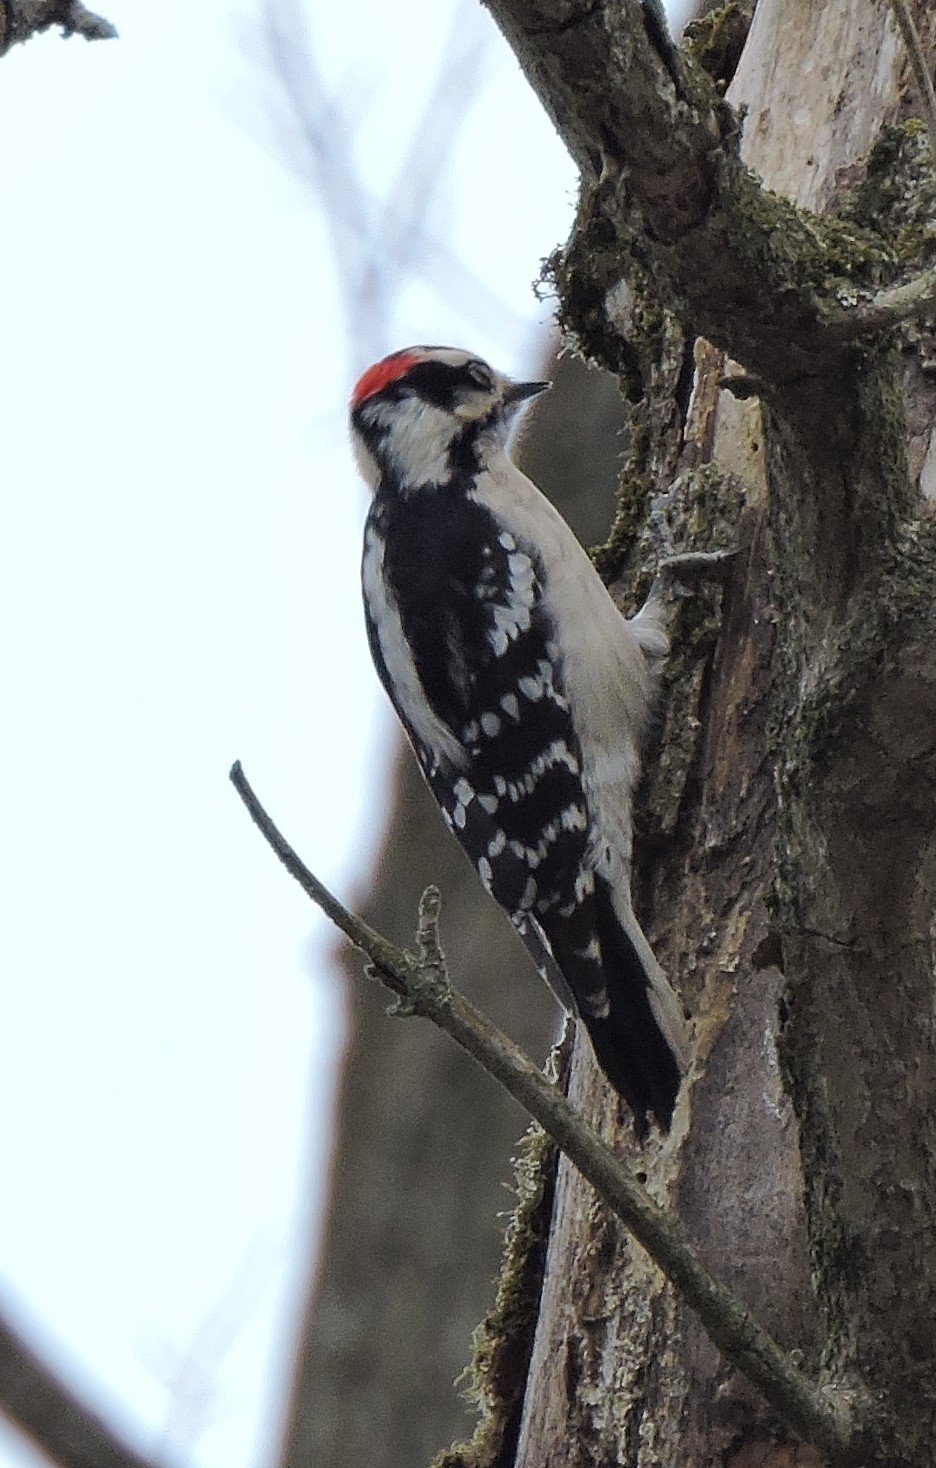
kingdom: Animalia
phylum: Chordata
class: Aves
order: Piciformes
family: Picidae
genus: Dryobates
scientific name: Dryobates pubescens
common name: Downy woodpecker
